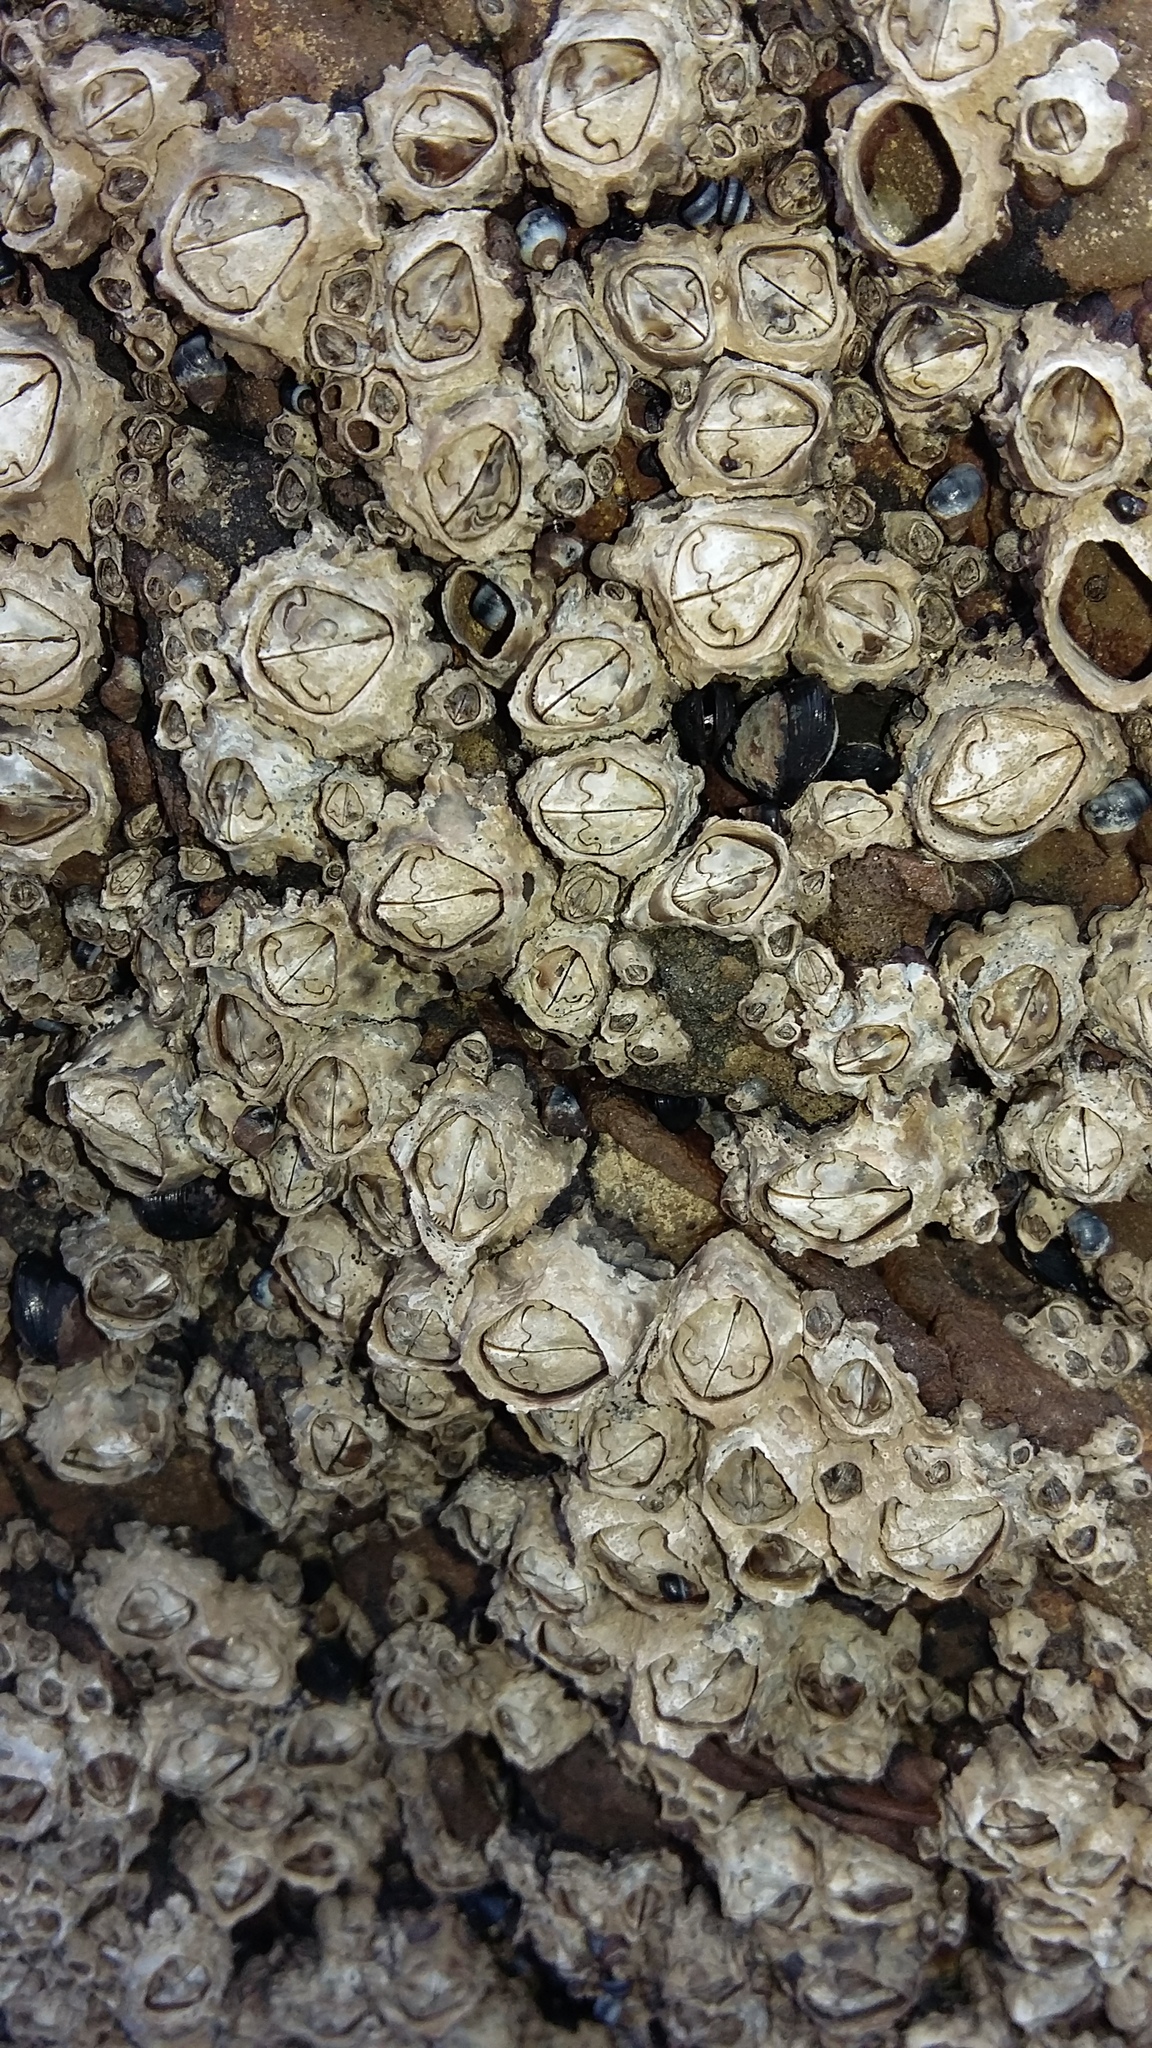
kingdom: Animalia
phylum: Arthropoda
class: Maxillopoda
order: Sessilia
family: Chthamalidae
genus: Chamaesipho
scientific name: Chamaesipho brunnea
